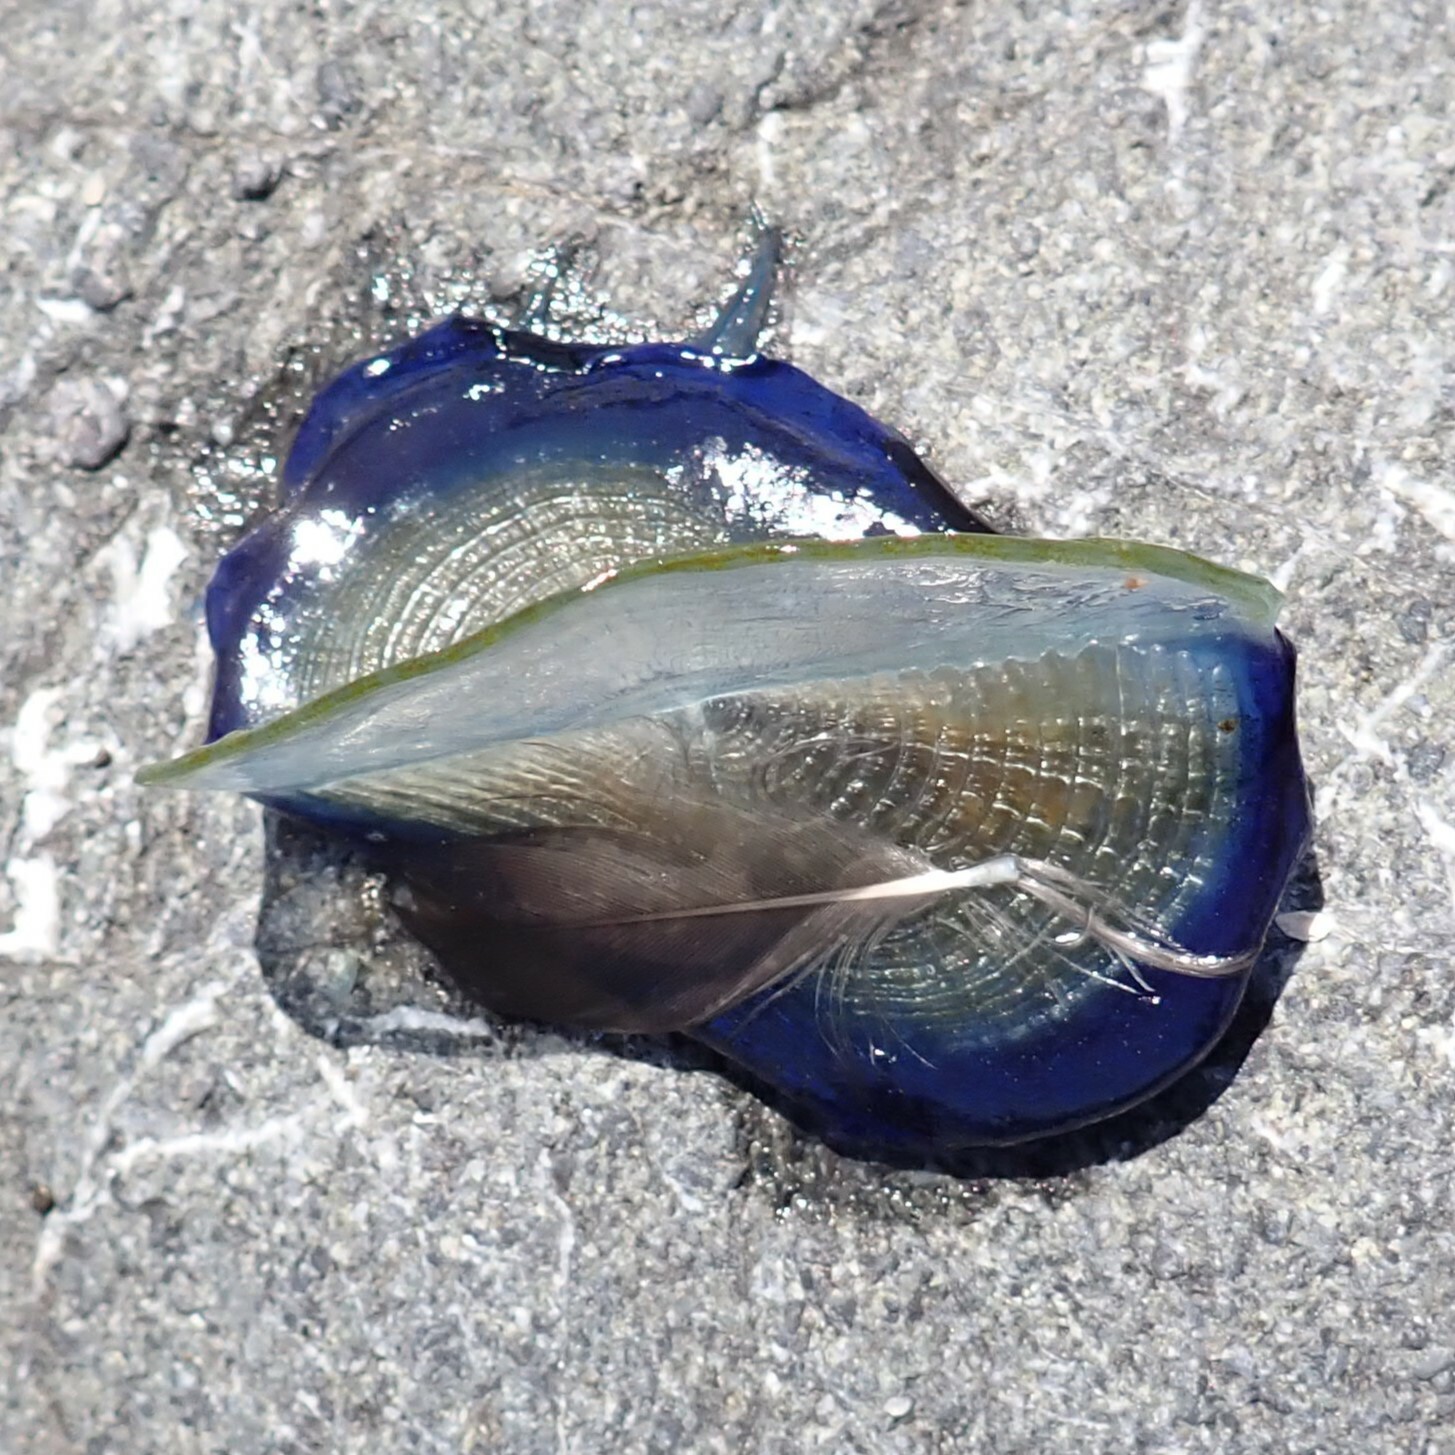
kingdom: Animalia
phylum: Cnidaria
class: Hydrozoa
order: Anthoathecata
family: Porpitidae
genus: Velella
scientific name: Velella velella
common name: By-the-wind-sailor
